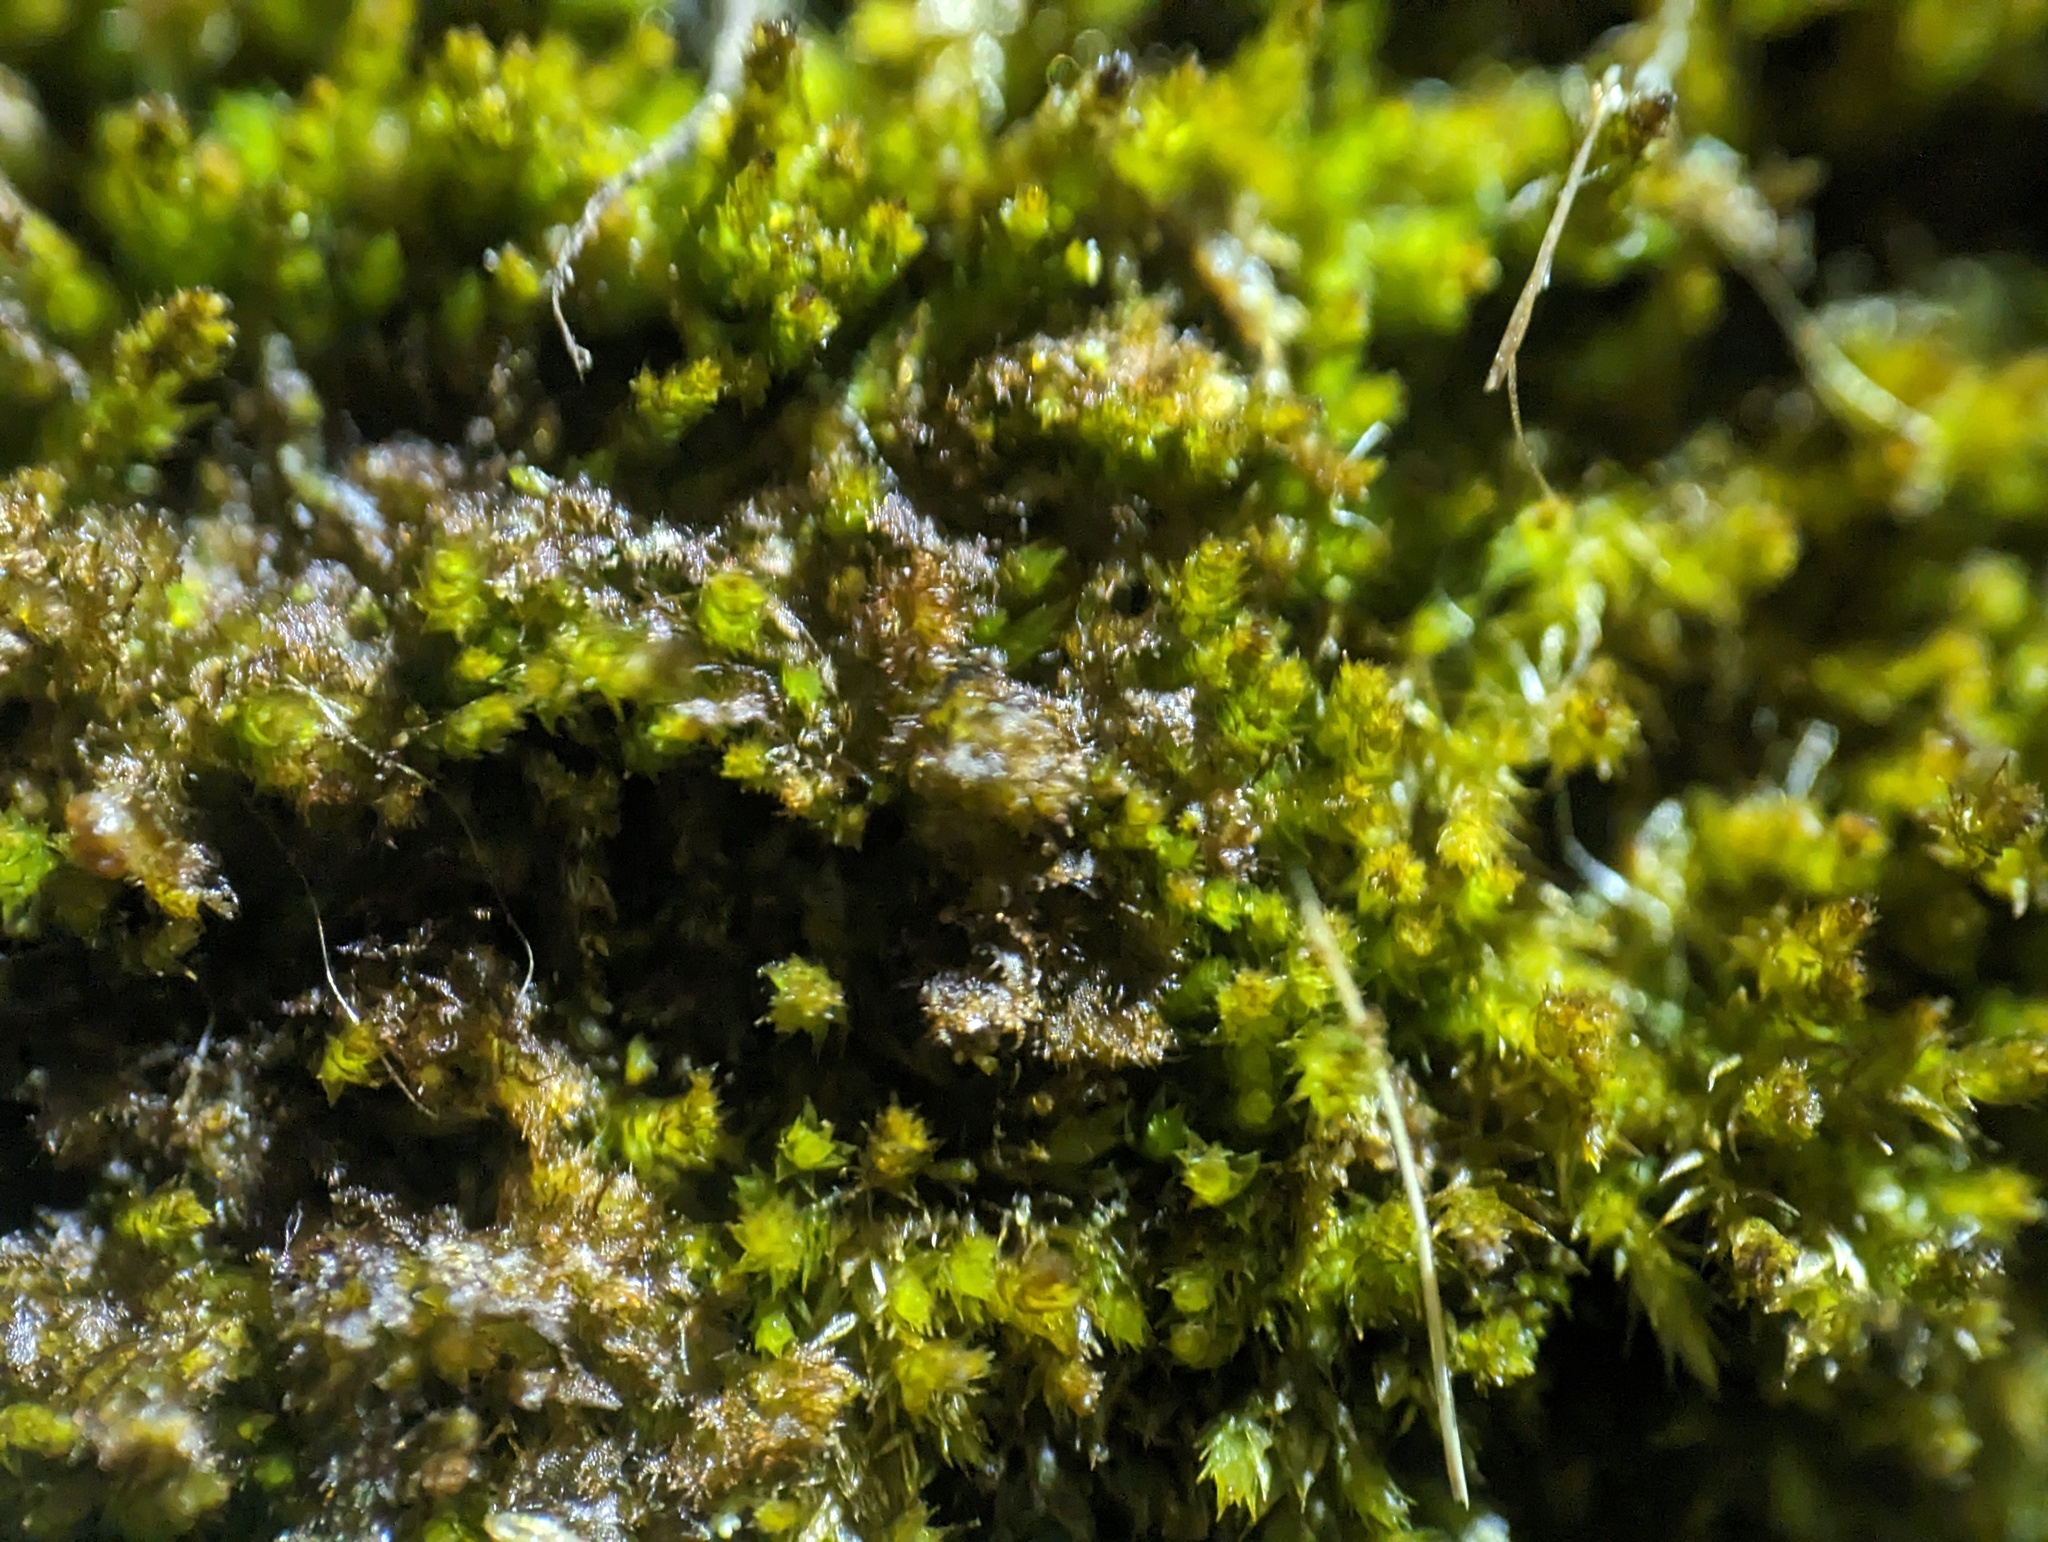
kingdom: Plantae
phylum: Marchantiophyta
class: Jungermanniopsida
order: Ptilidiales
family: Ptilidiaceae
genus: Ptilidium
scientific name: Ptilidium pulcherrimum
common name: Tree fringewort
